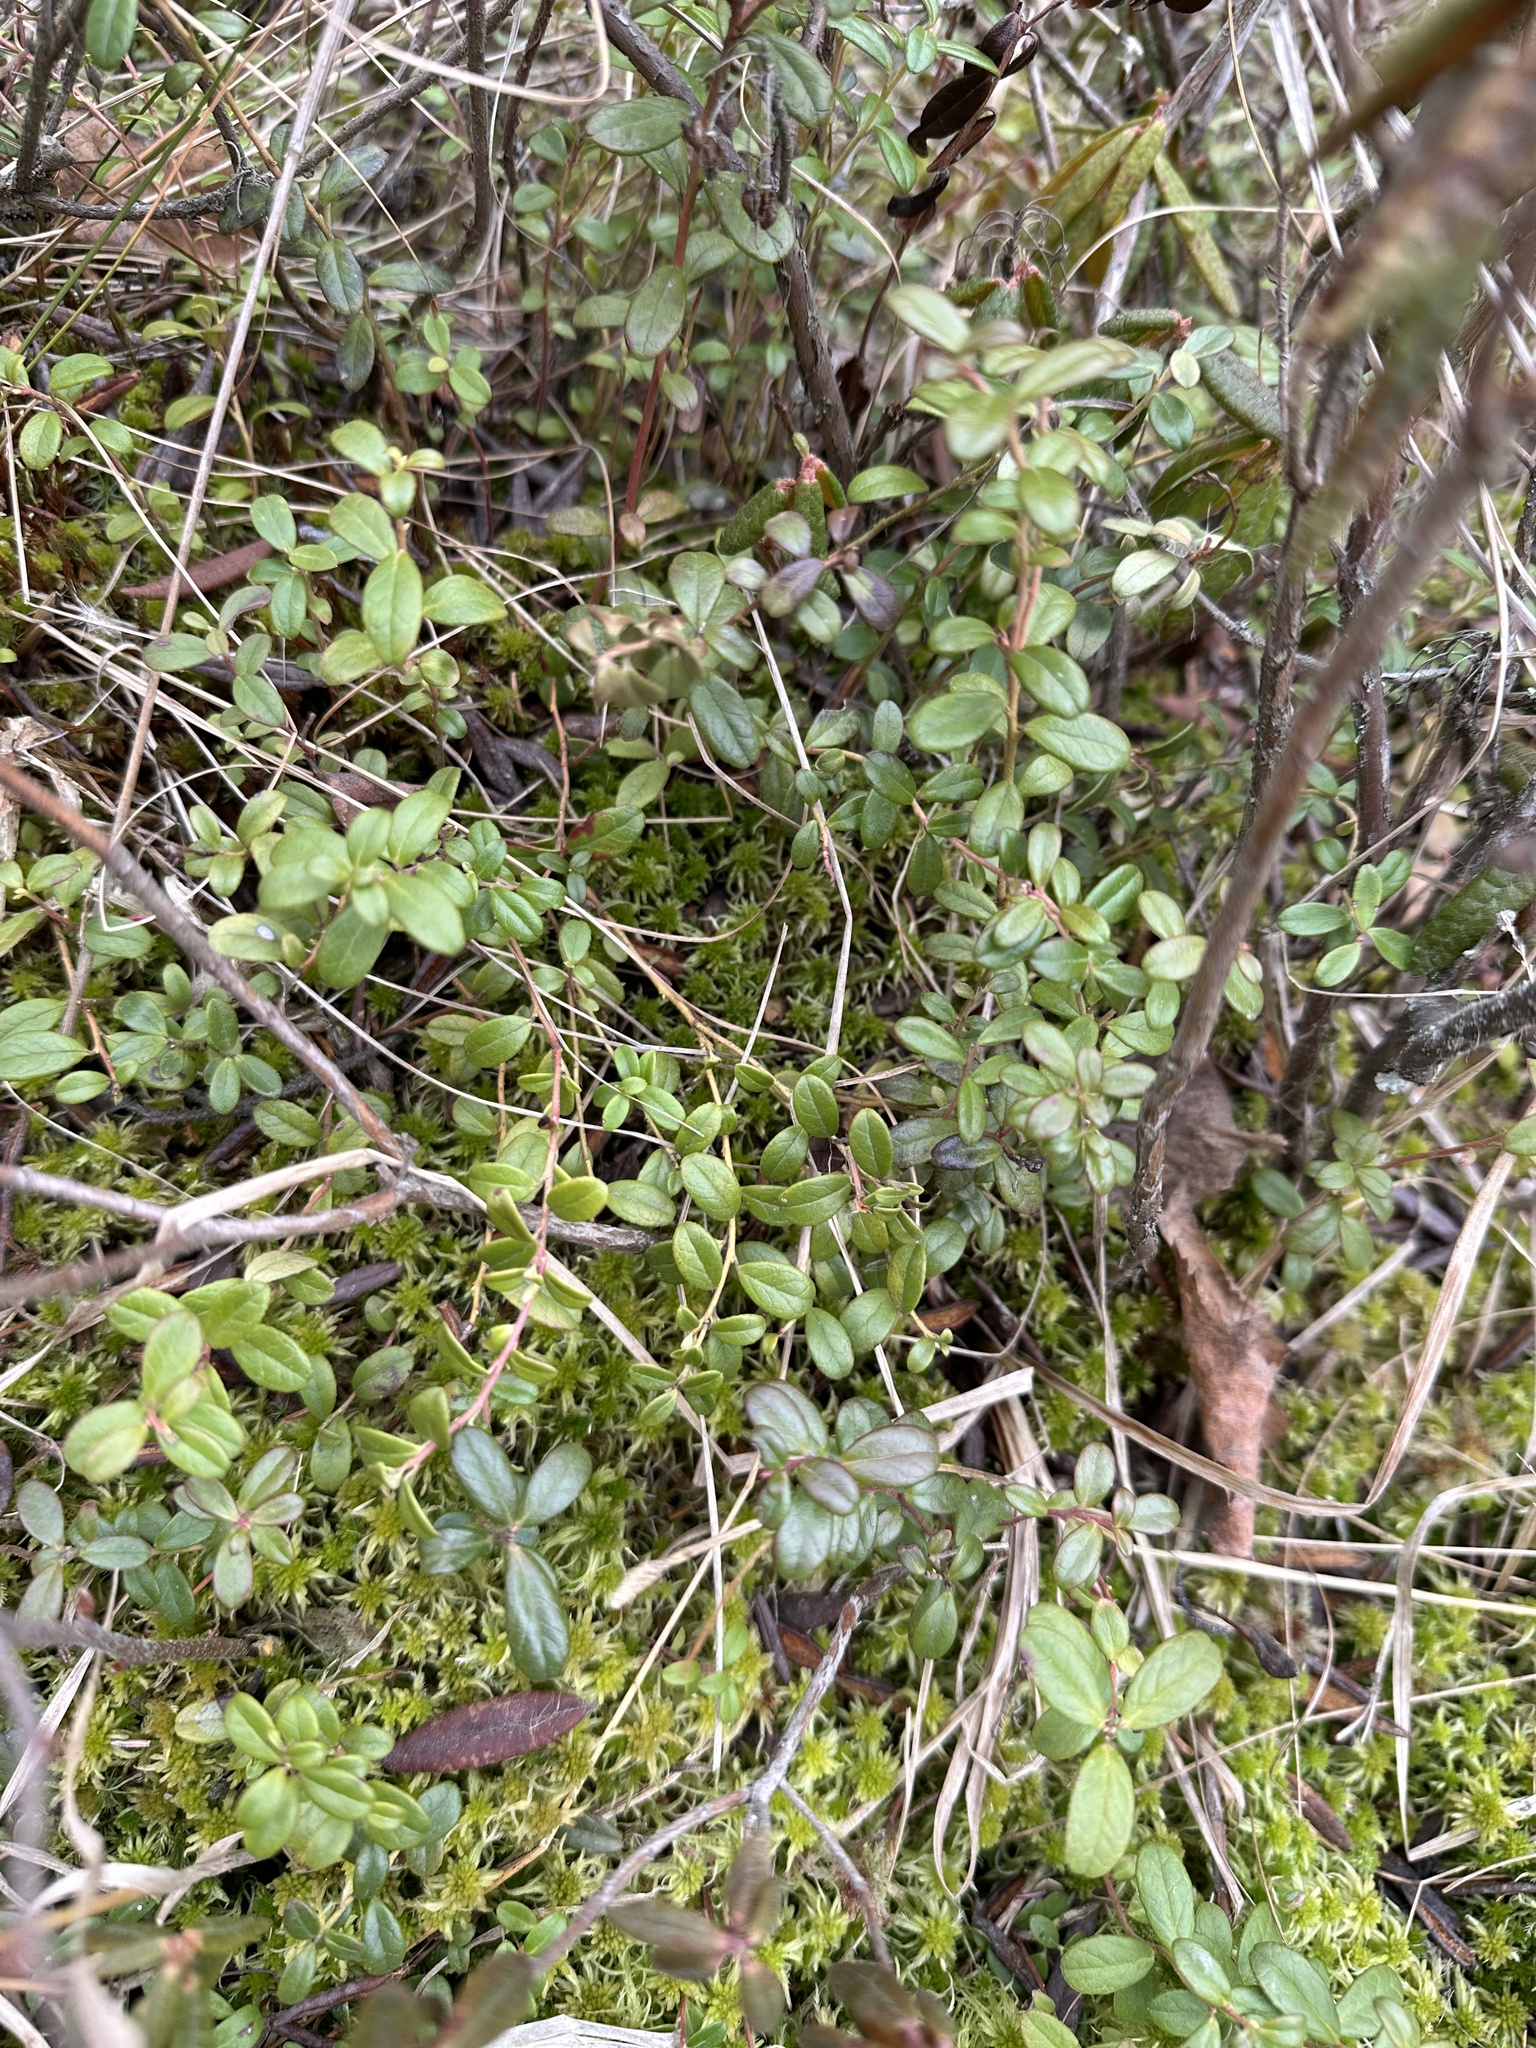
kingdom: Plantae
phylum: Tracheophyta
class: Magnoliopsida
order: Ericales
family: Ericaceae
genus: Vaccinium
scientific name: Vaccinium vitis-idaea
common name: Cowberry
